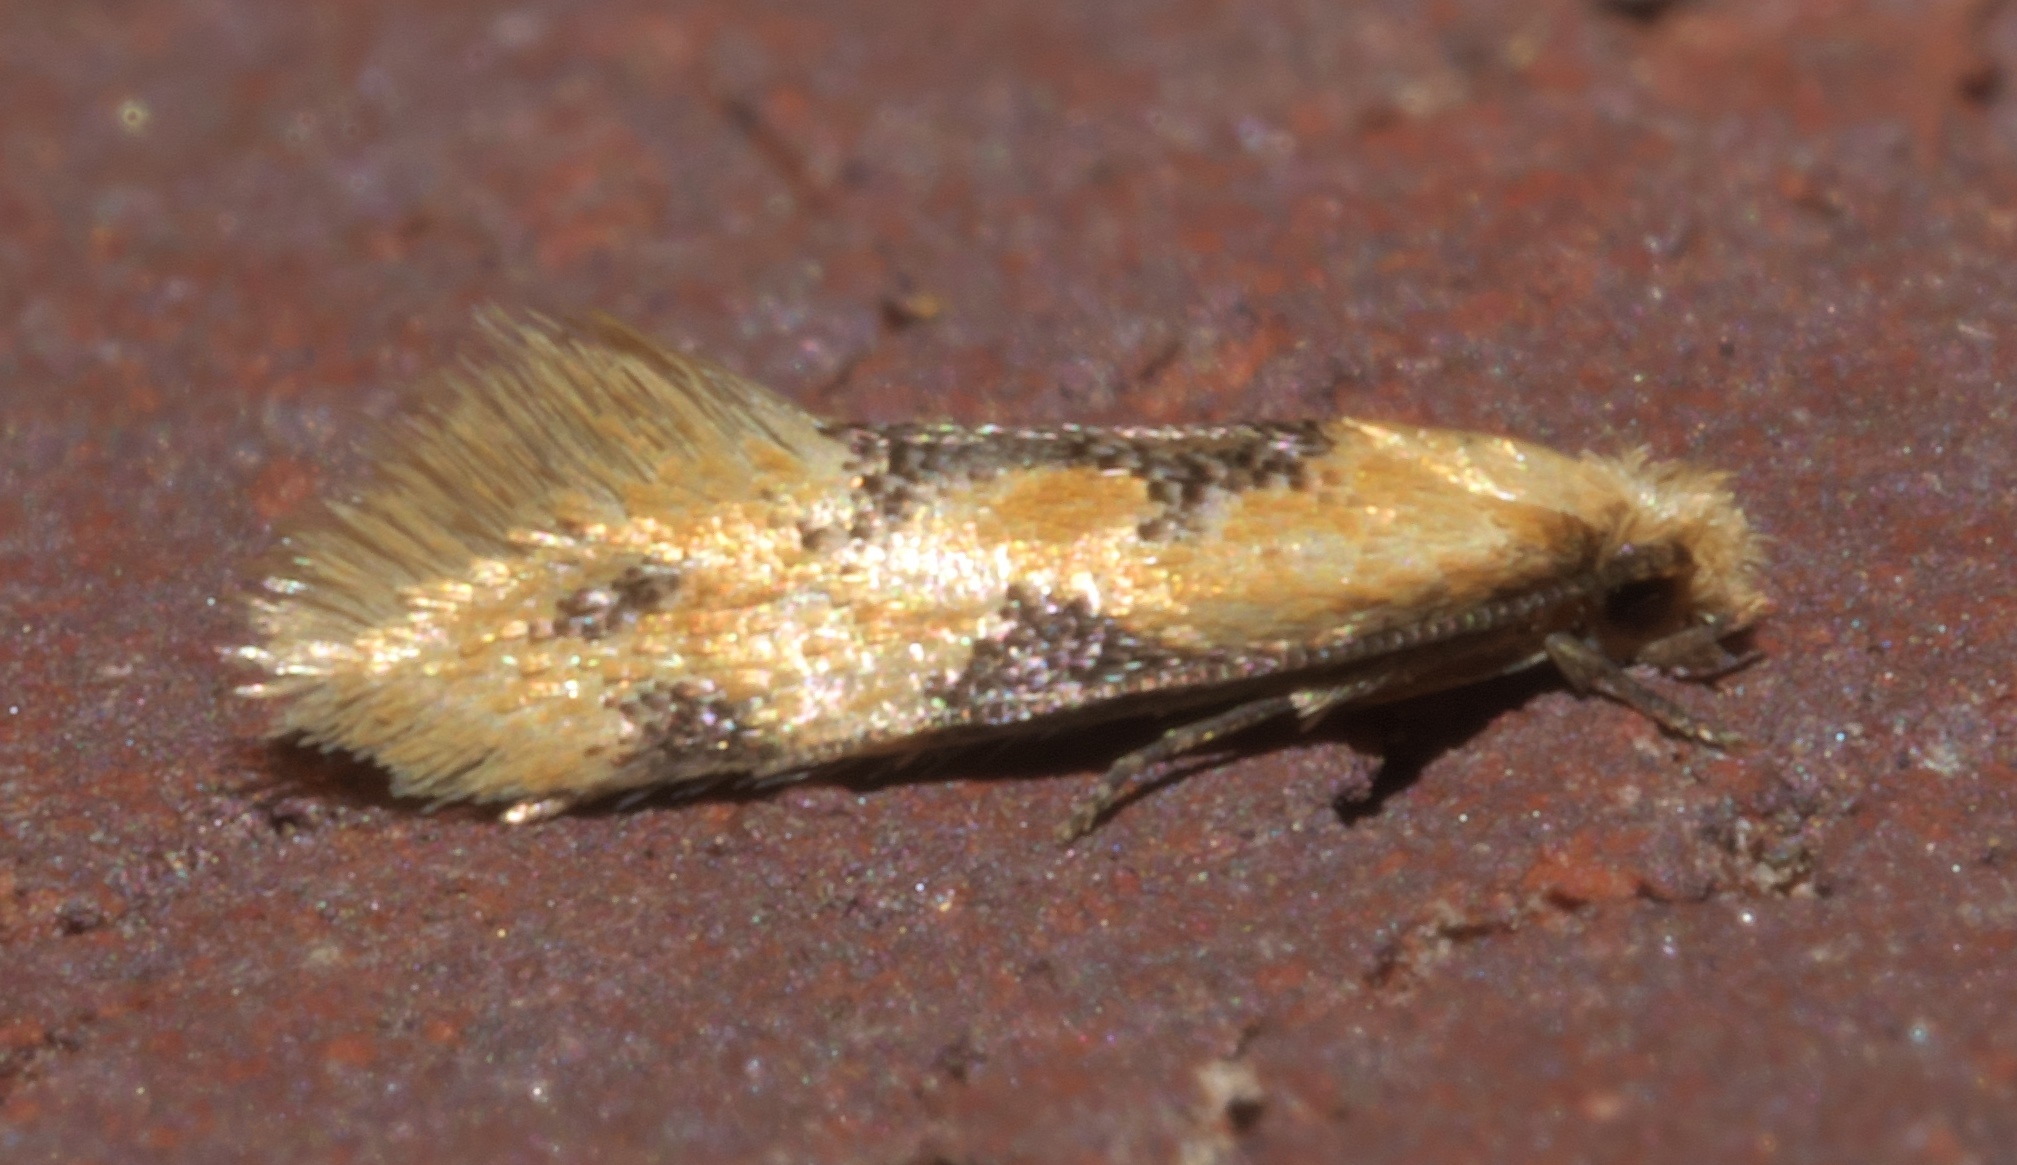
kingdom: Animalia
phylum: Arthropoda
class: Insecta
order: Lepidoptera
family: Meessiidae
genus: Hybroma
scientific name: Hybroma servulella
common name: Yellow wave moth
